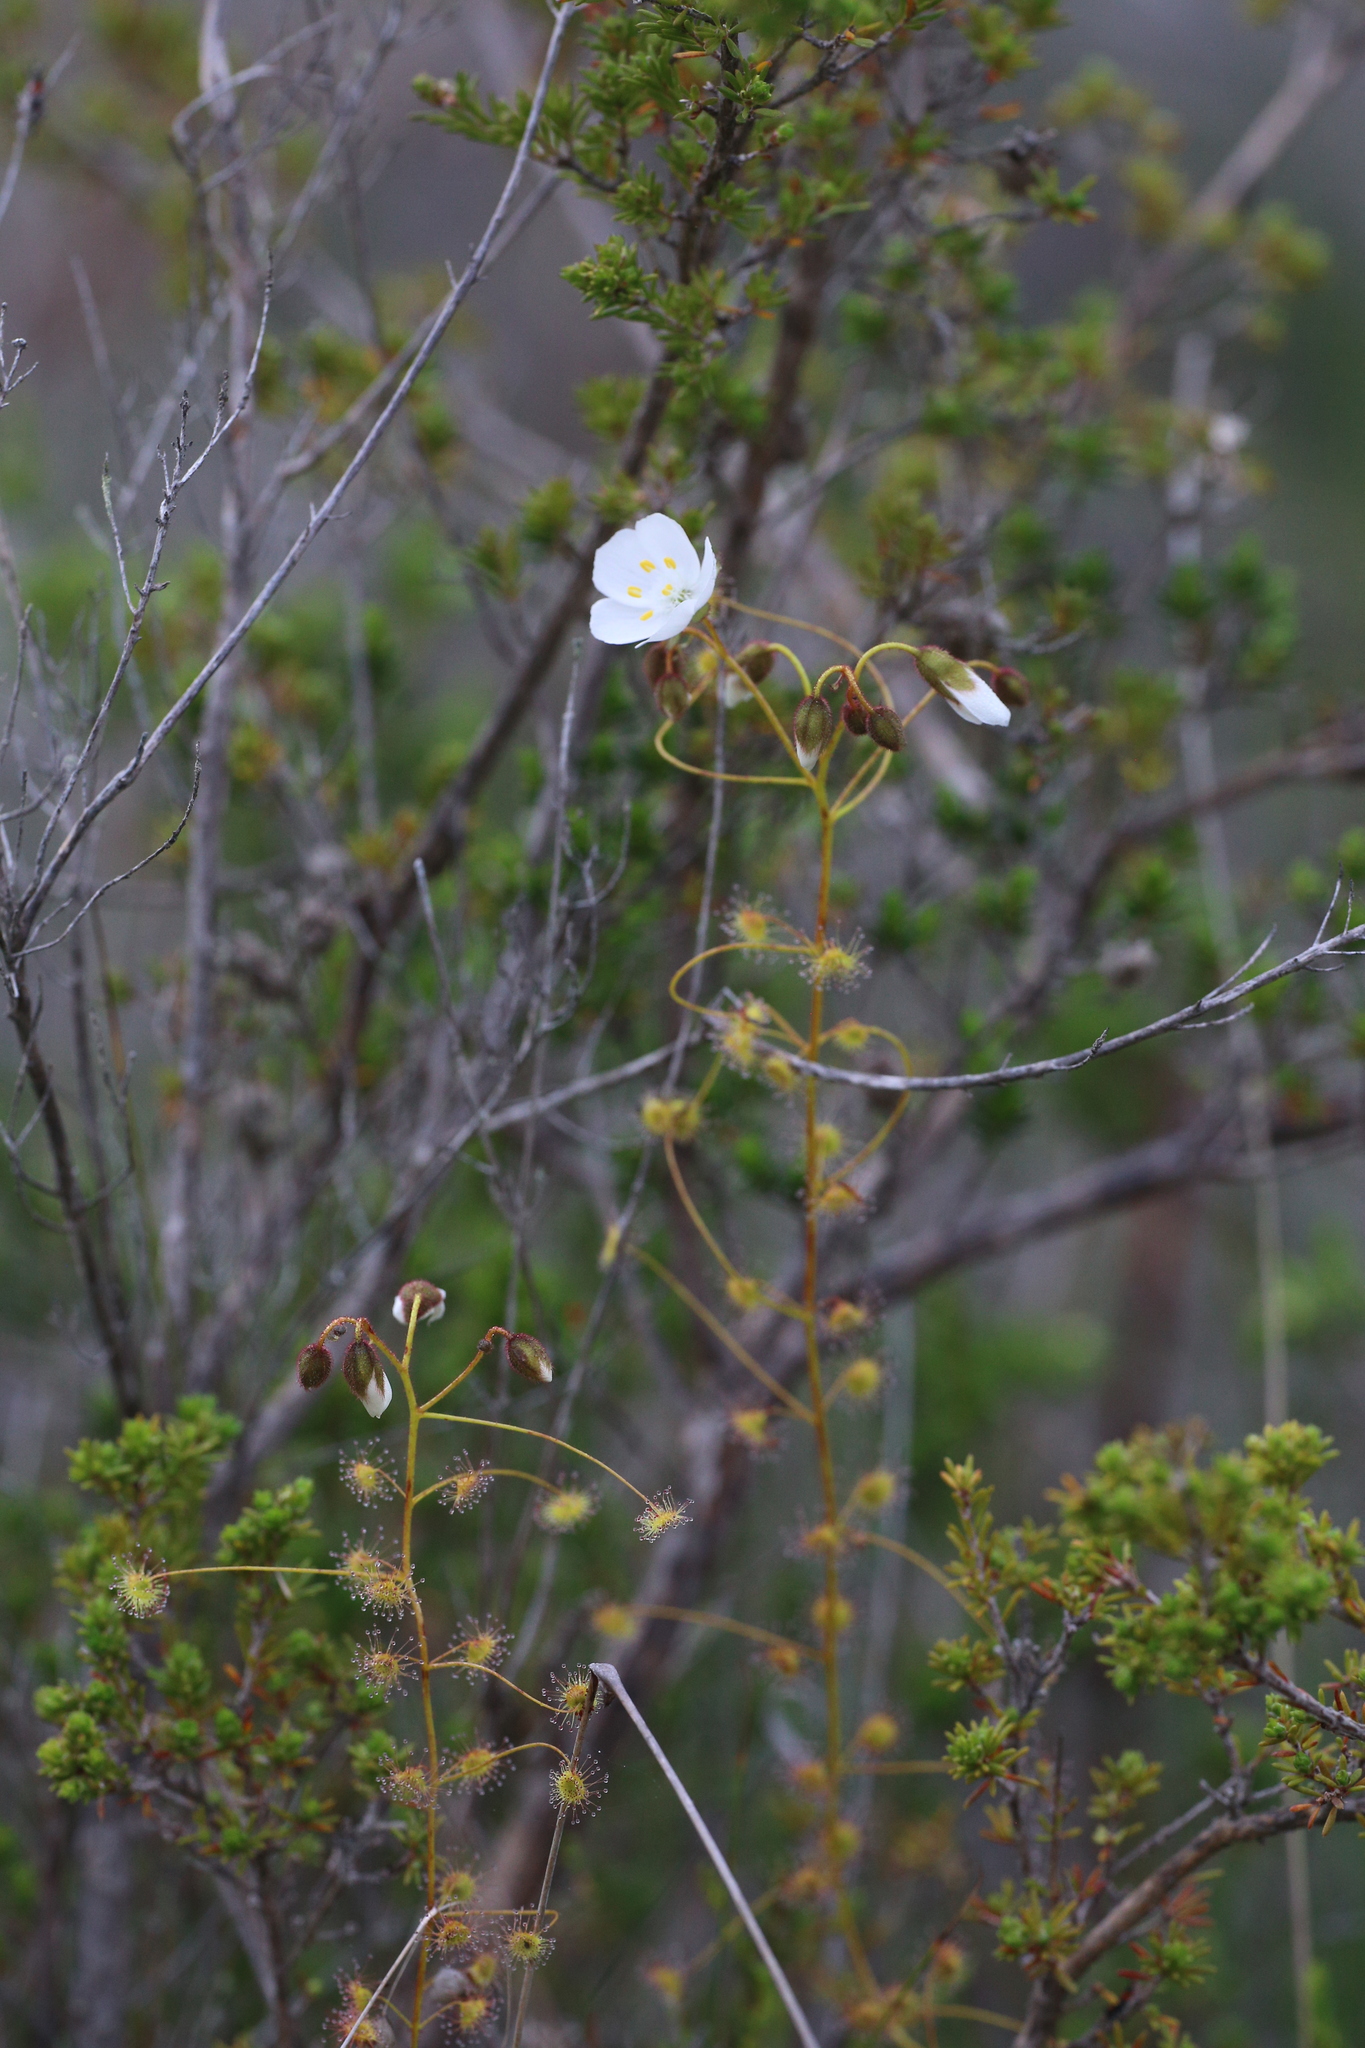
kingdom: Plantae
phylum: Tracheophyta
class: Magnoliopsida
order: Caryophyllales
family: Droseraceae
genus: Drosera
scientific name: Drosera macrantha
